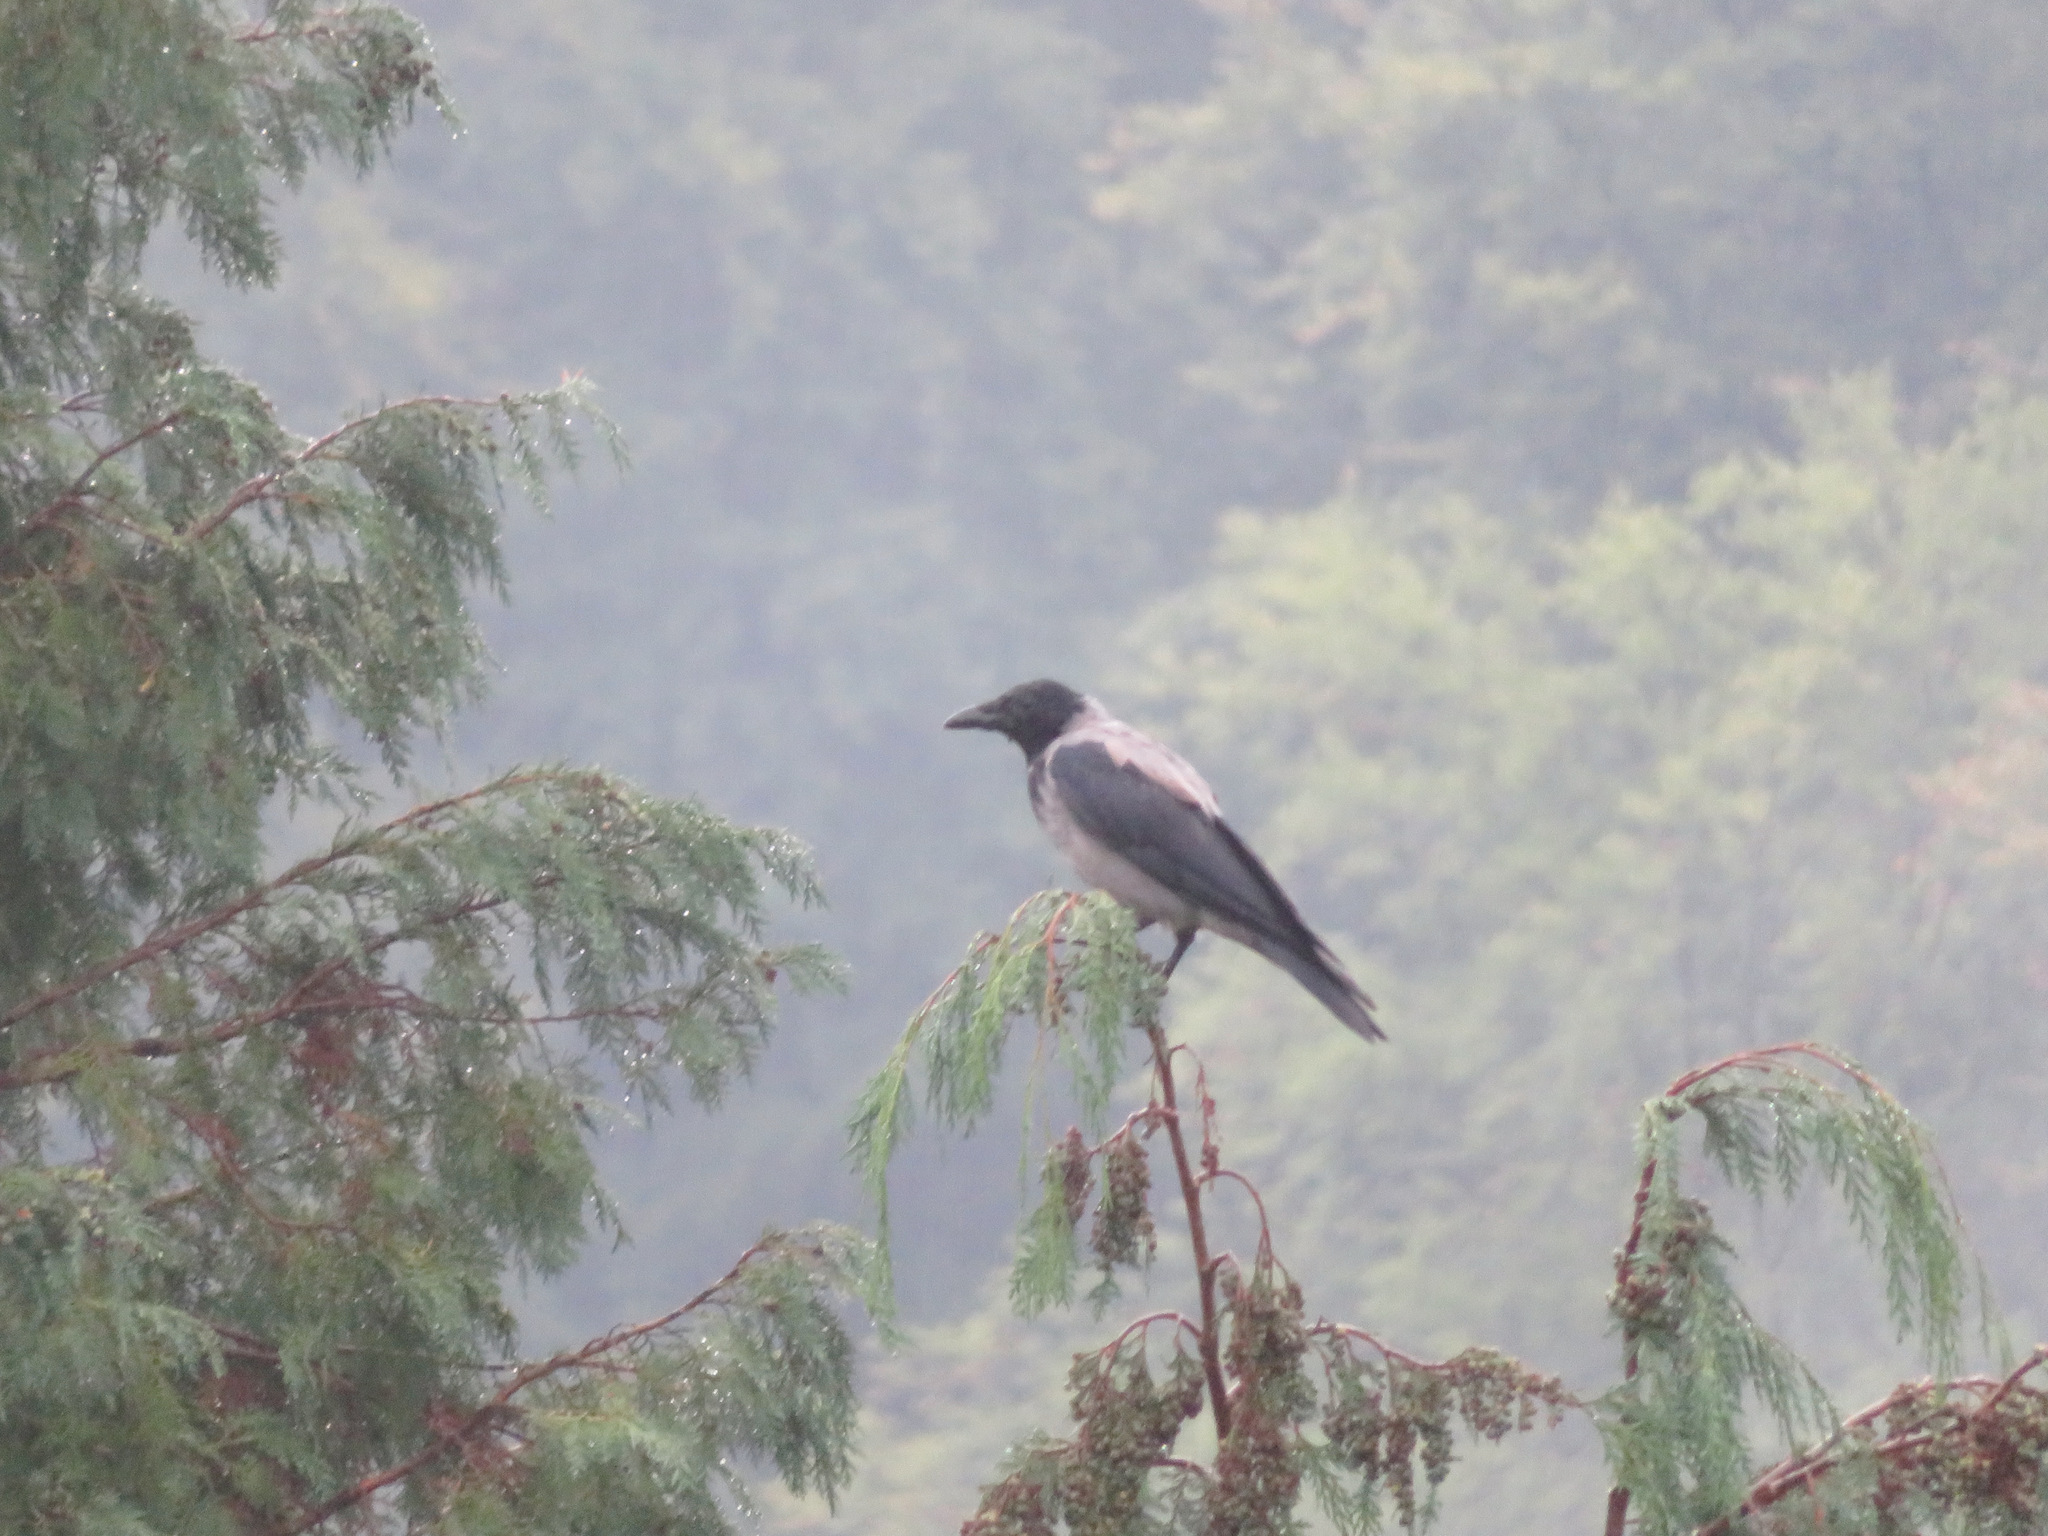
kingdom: Animalia
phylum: Chordata
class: Aves
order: Passeriformes
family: Corvidae
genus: Corvus
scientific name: Corvus cornix
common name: Hooded crow
